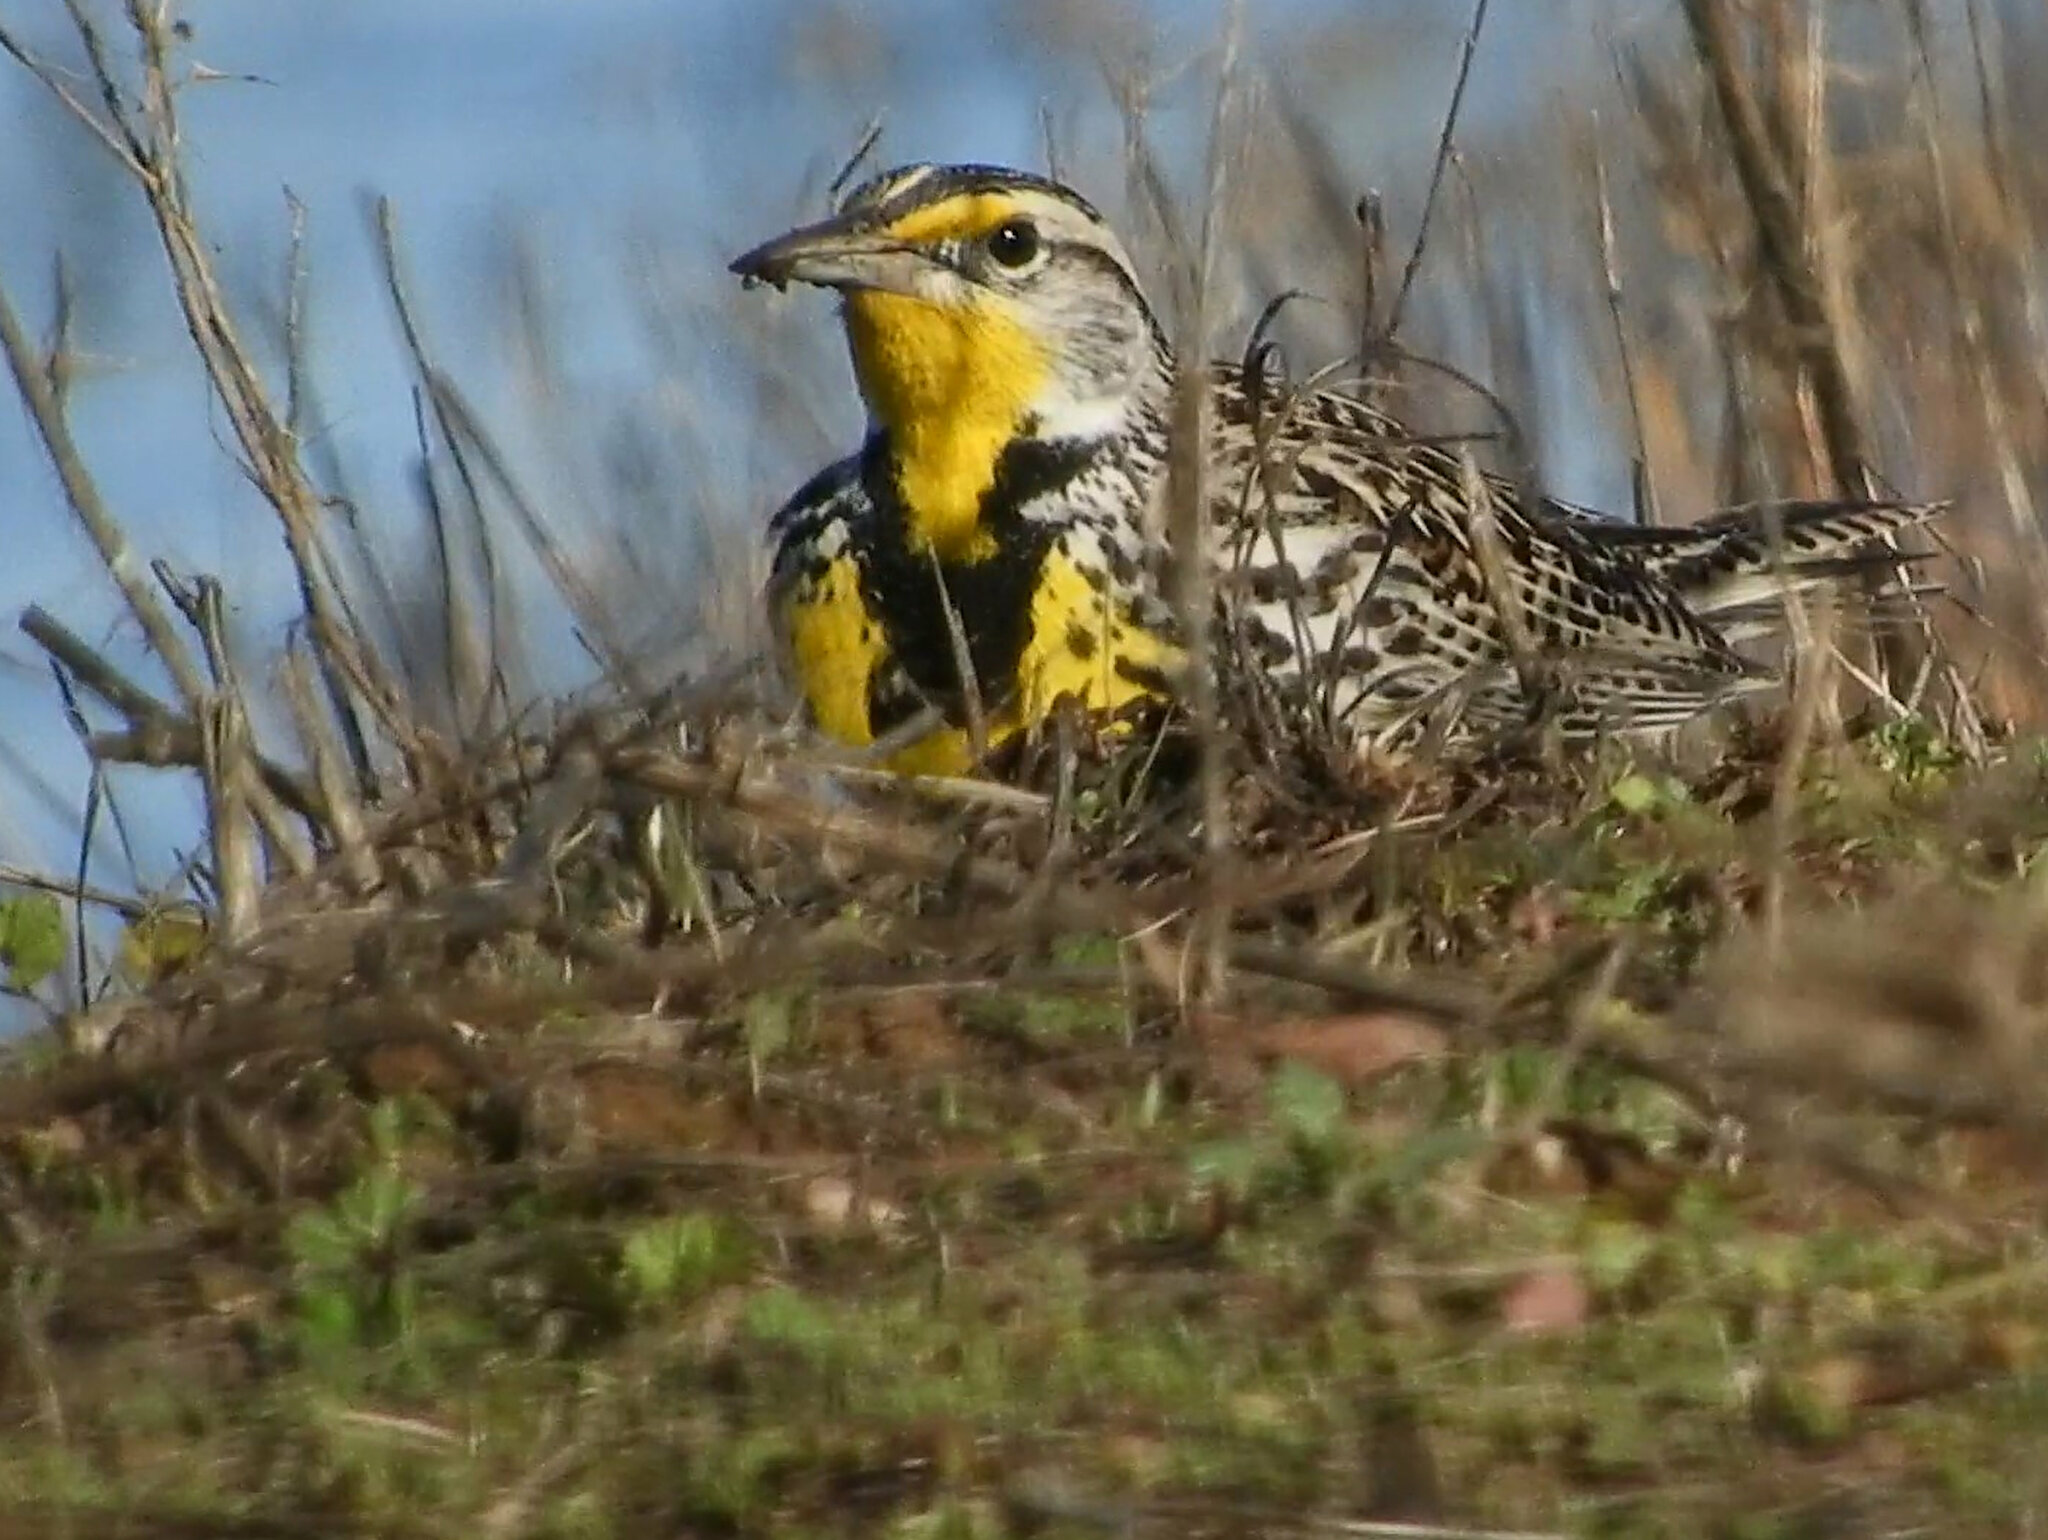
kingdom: Animalia
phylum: Chordata
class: Aves
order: Passeriformes
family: Icteridae
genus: Sturnella
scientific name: Sturnella neglecta
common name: Western meadowlark
